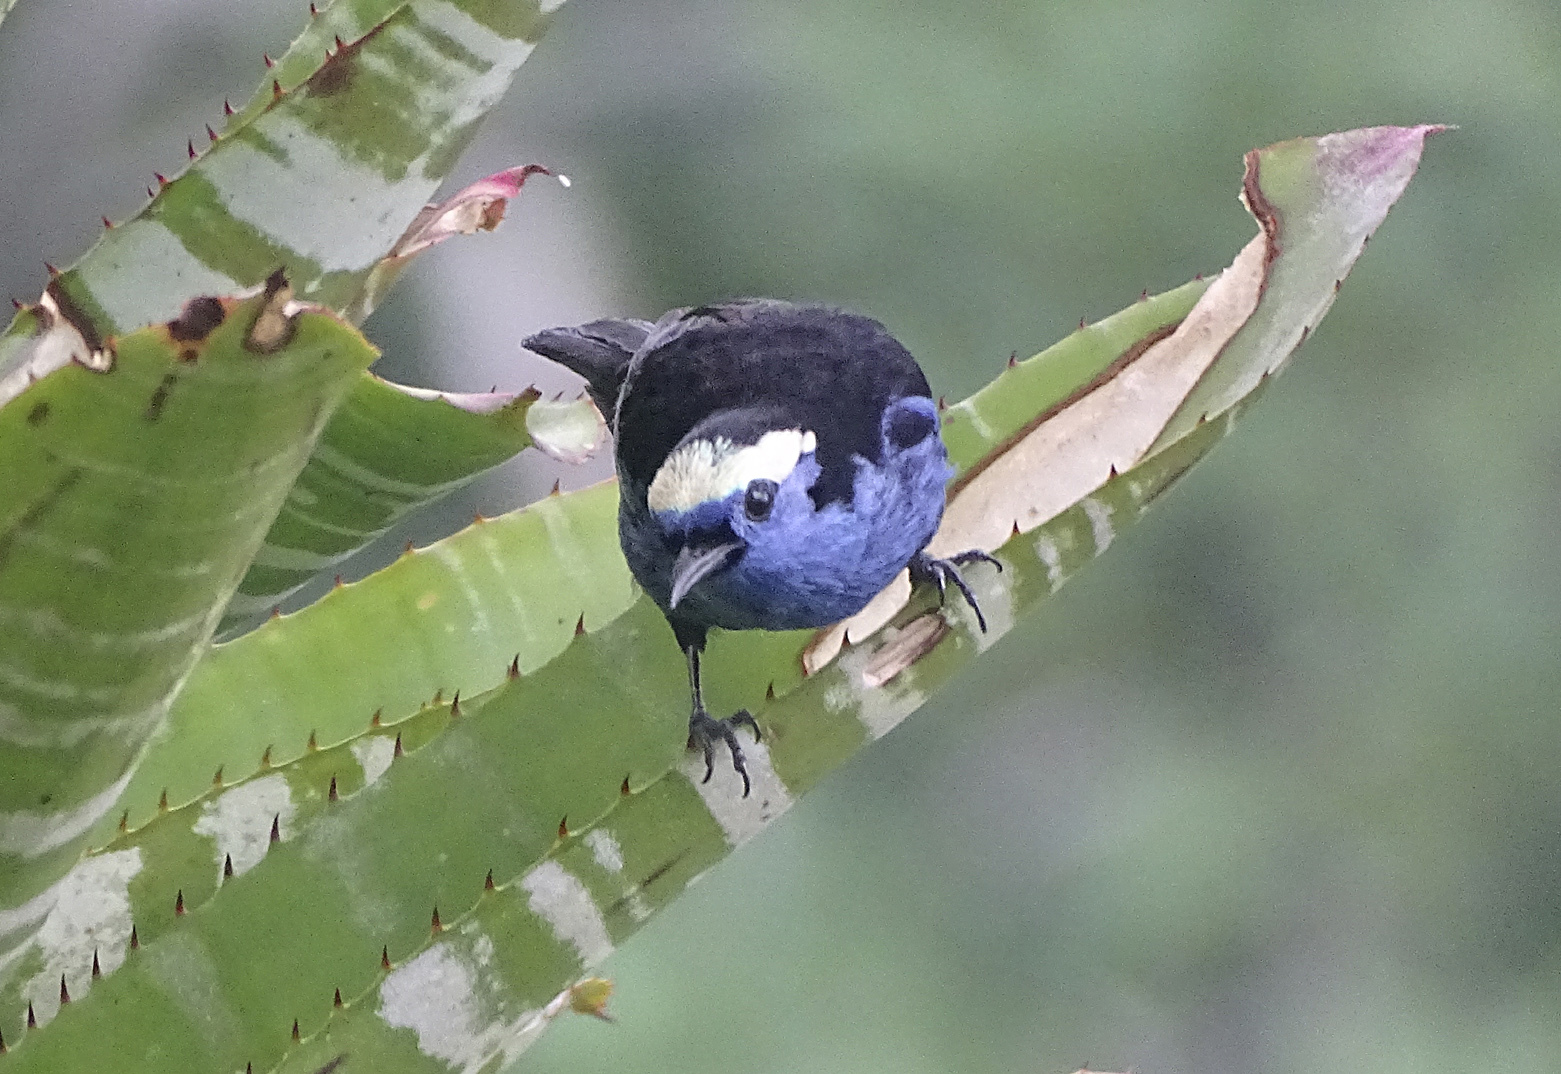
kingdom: Animalia
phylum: Chordata
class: Aves
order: Passeriformes
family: Thraupidae
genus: Tangara
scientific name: Tangara callophrys
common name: Opal-crowned tanager
